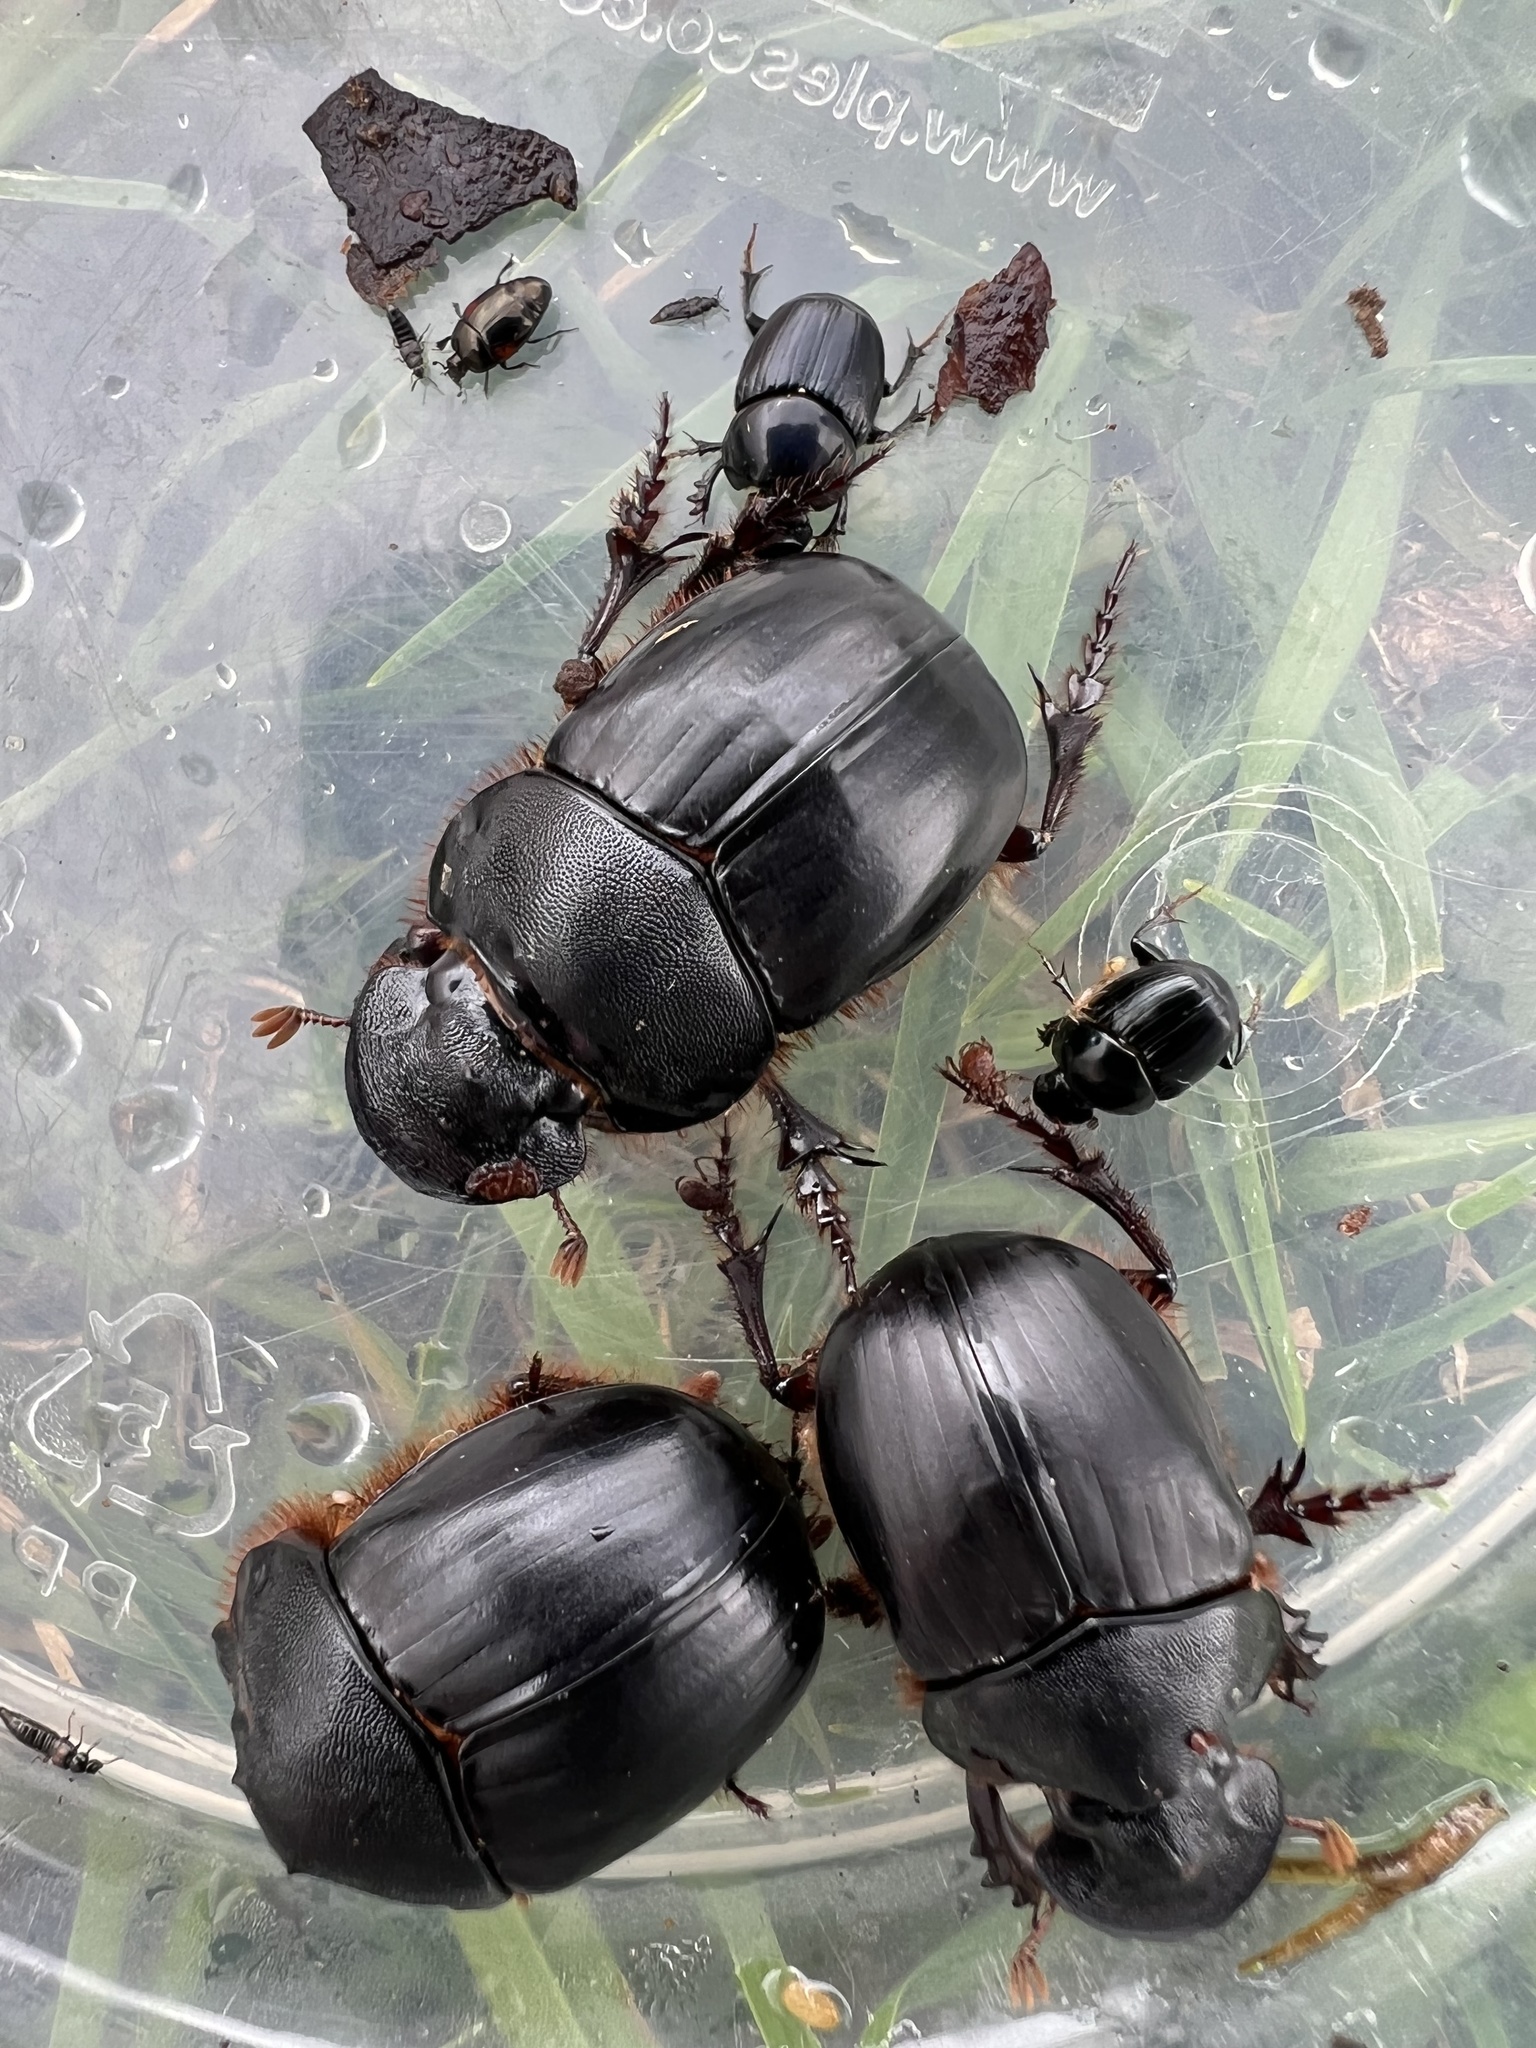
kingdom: Animalia
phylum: Arthropoda
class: Insecta
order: Coleoptera
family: Scarabaeidae
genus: Homocopris
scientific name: Homocopris achamas
